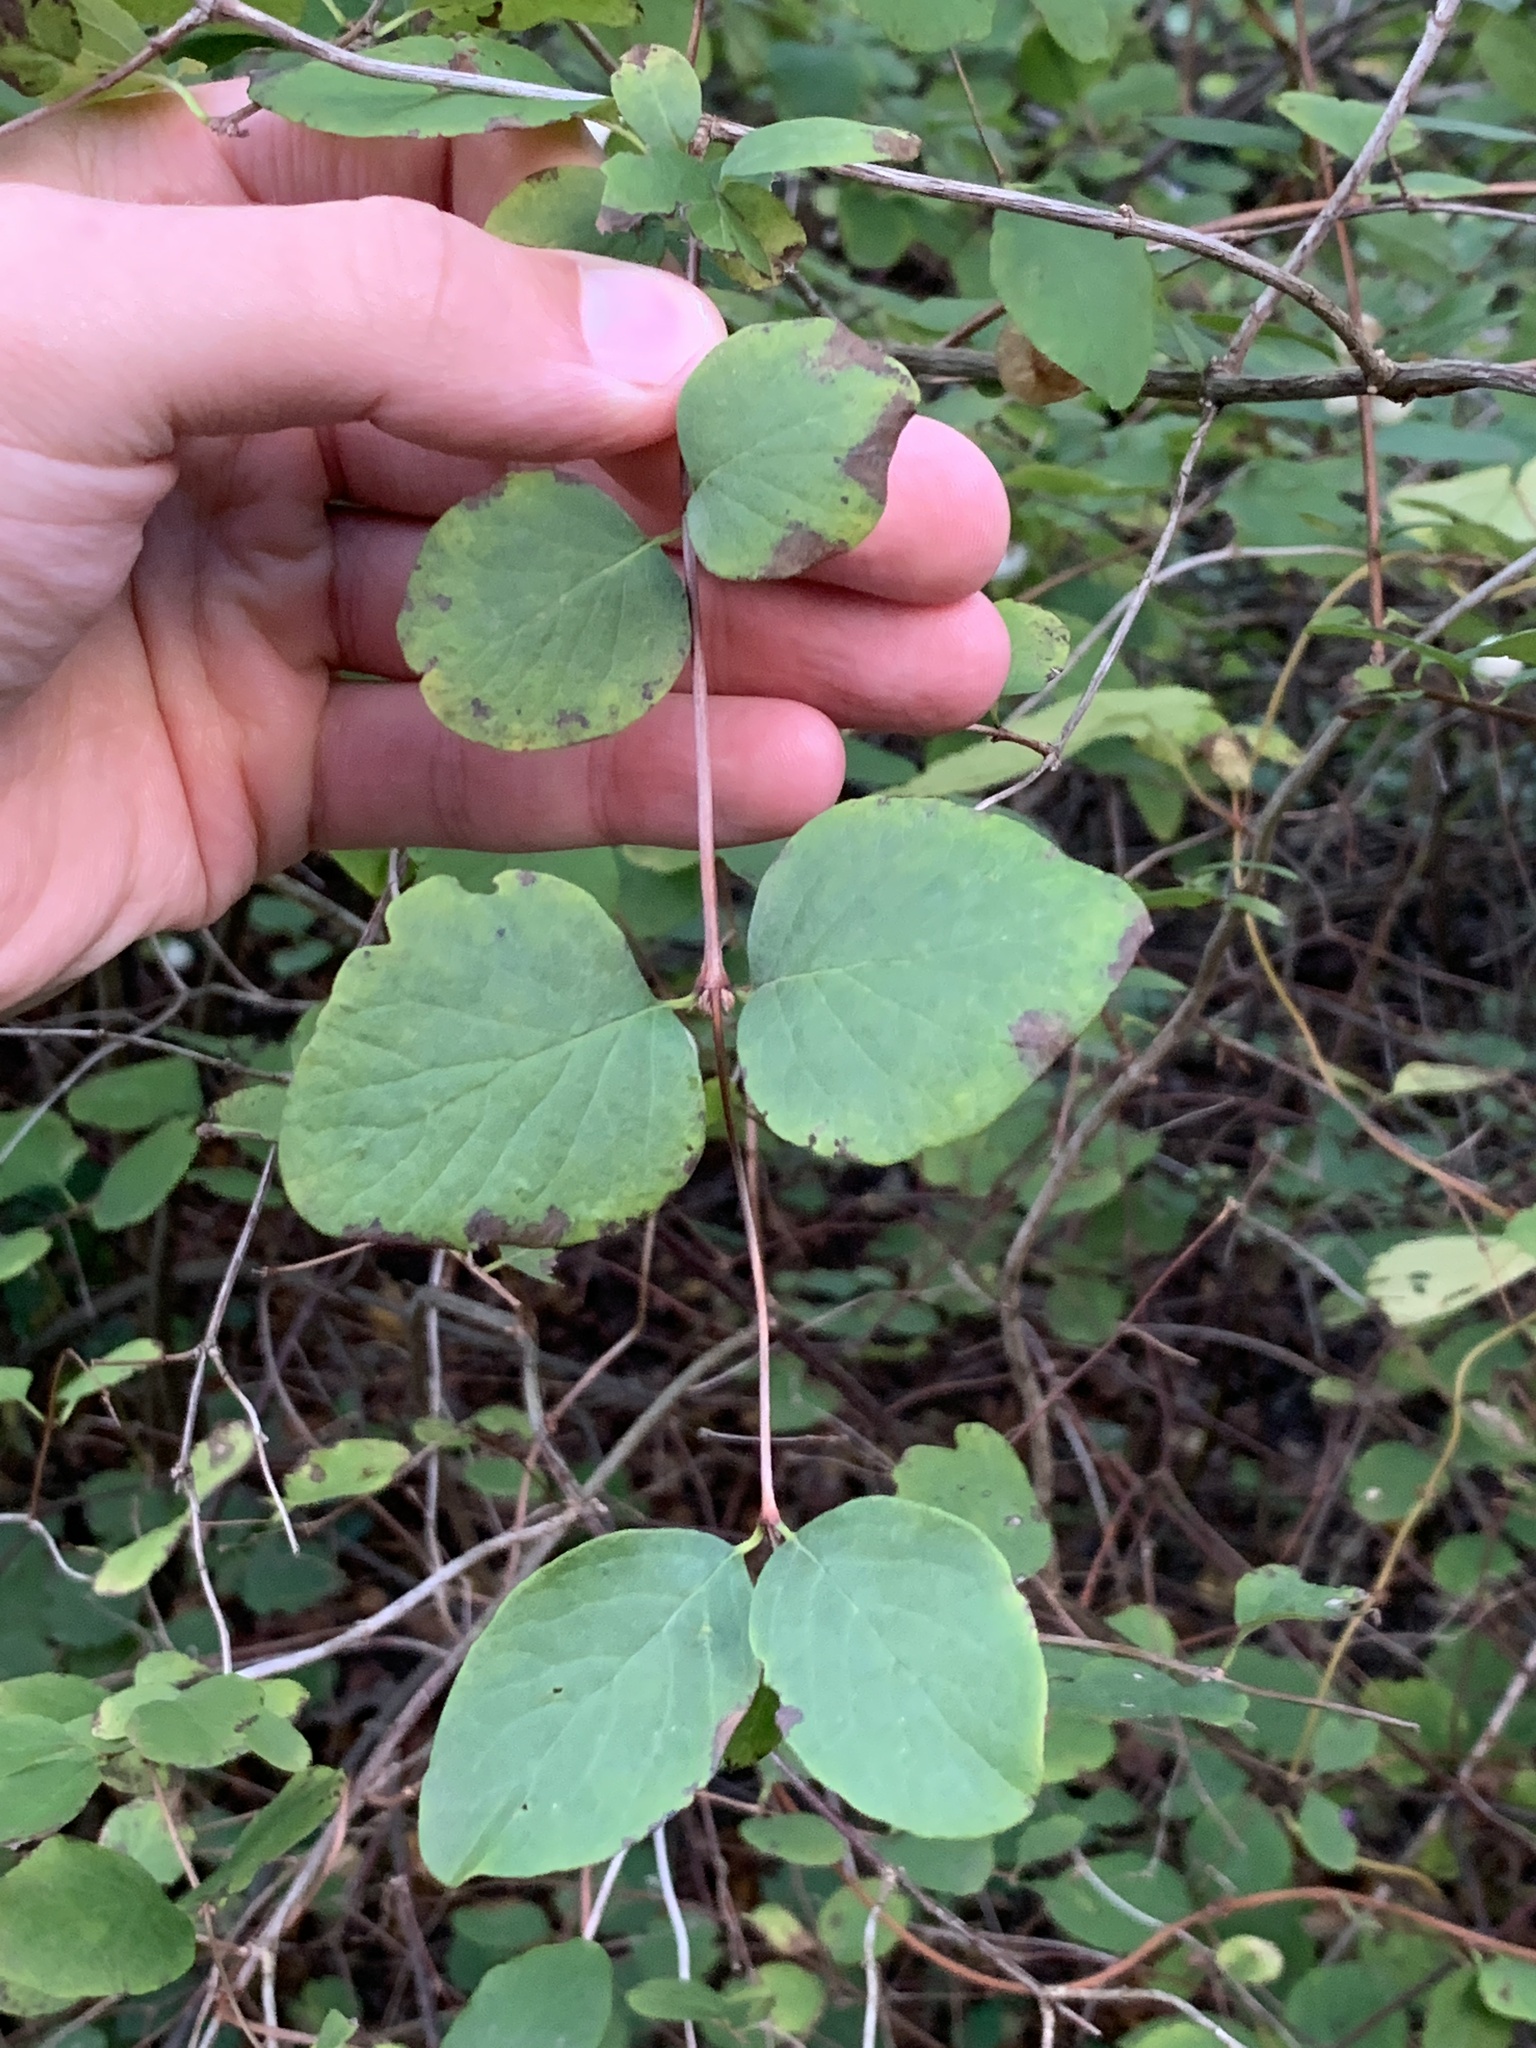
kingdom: Plantae
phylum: Tracheophyta
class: Magnoliopsida
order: Dipsacales
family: Caprifoliaceae
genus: Symphoricarpos
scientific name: Symphoricarpos albus
